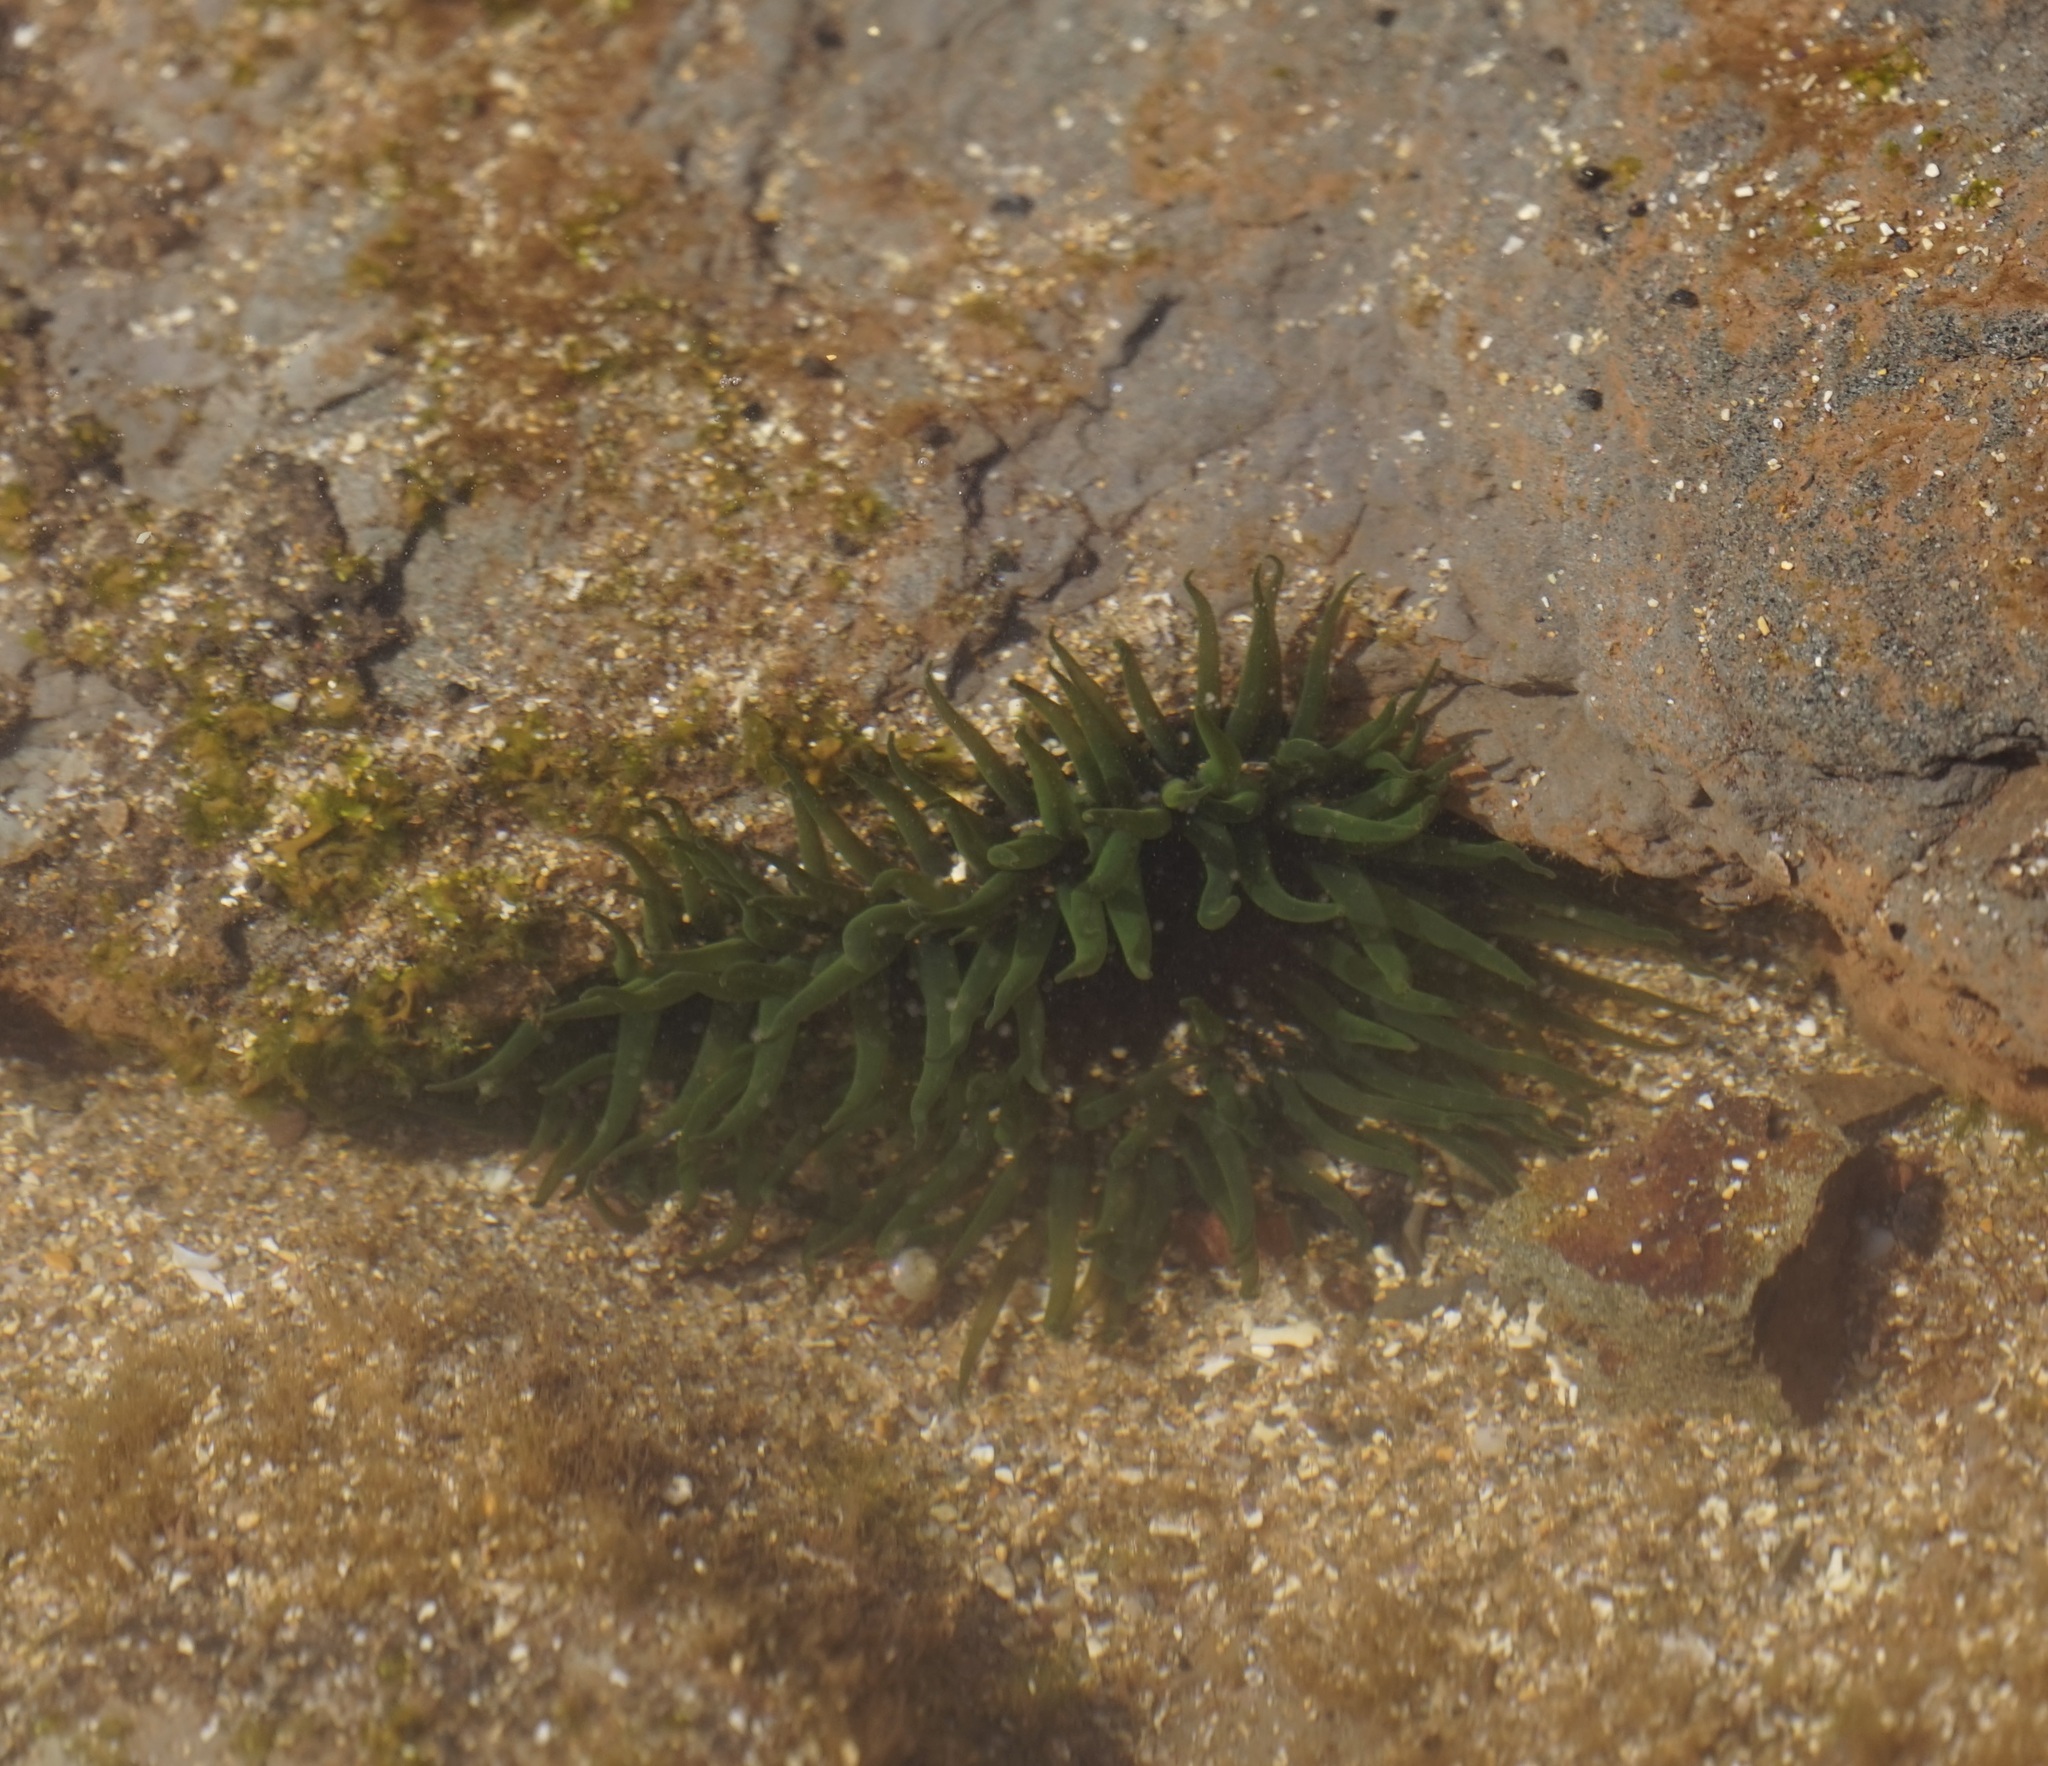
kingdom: Animalia
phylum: Cnidaria
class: Anthozoa
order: Actiniaria
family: Actiniidae
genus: Aulactinia
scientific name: Aulactinia veratra
